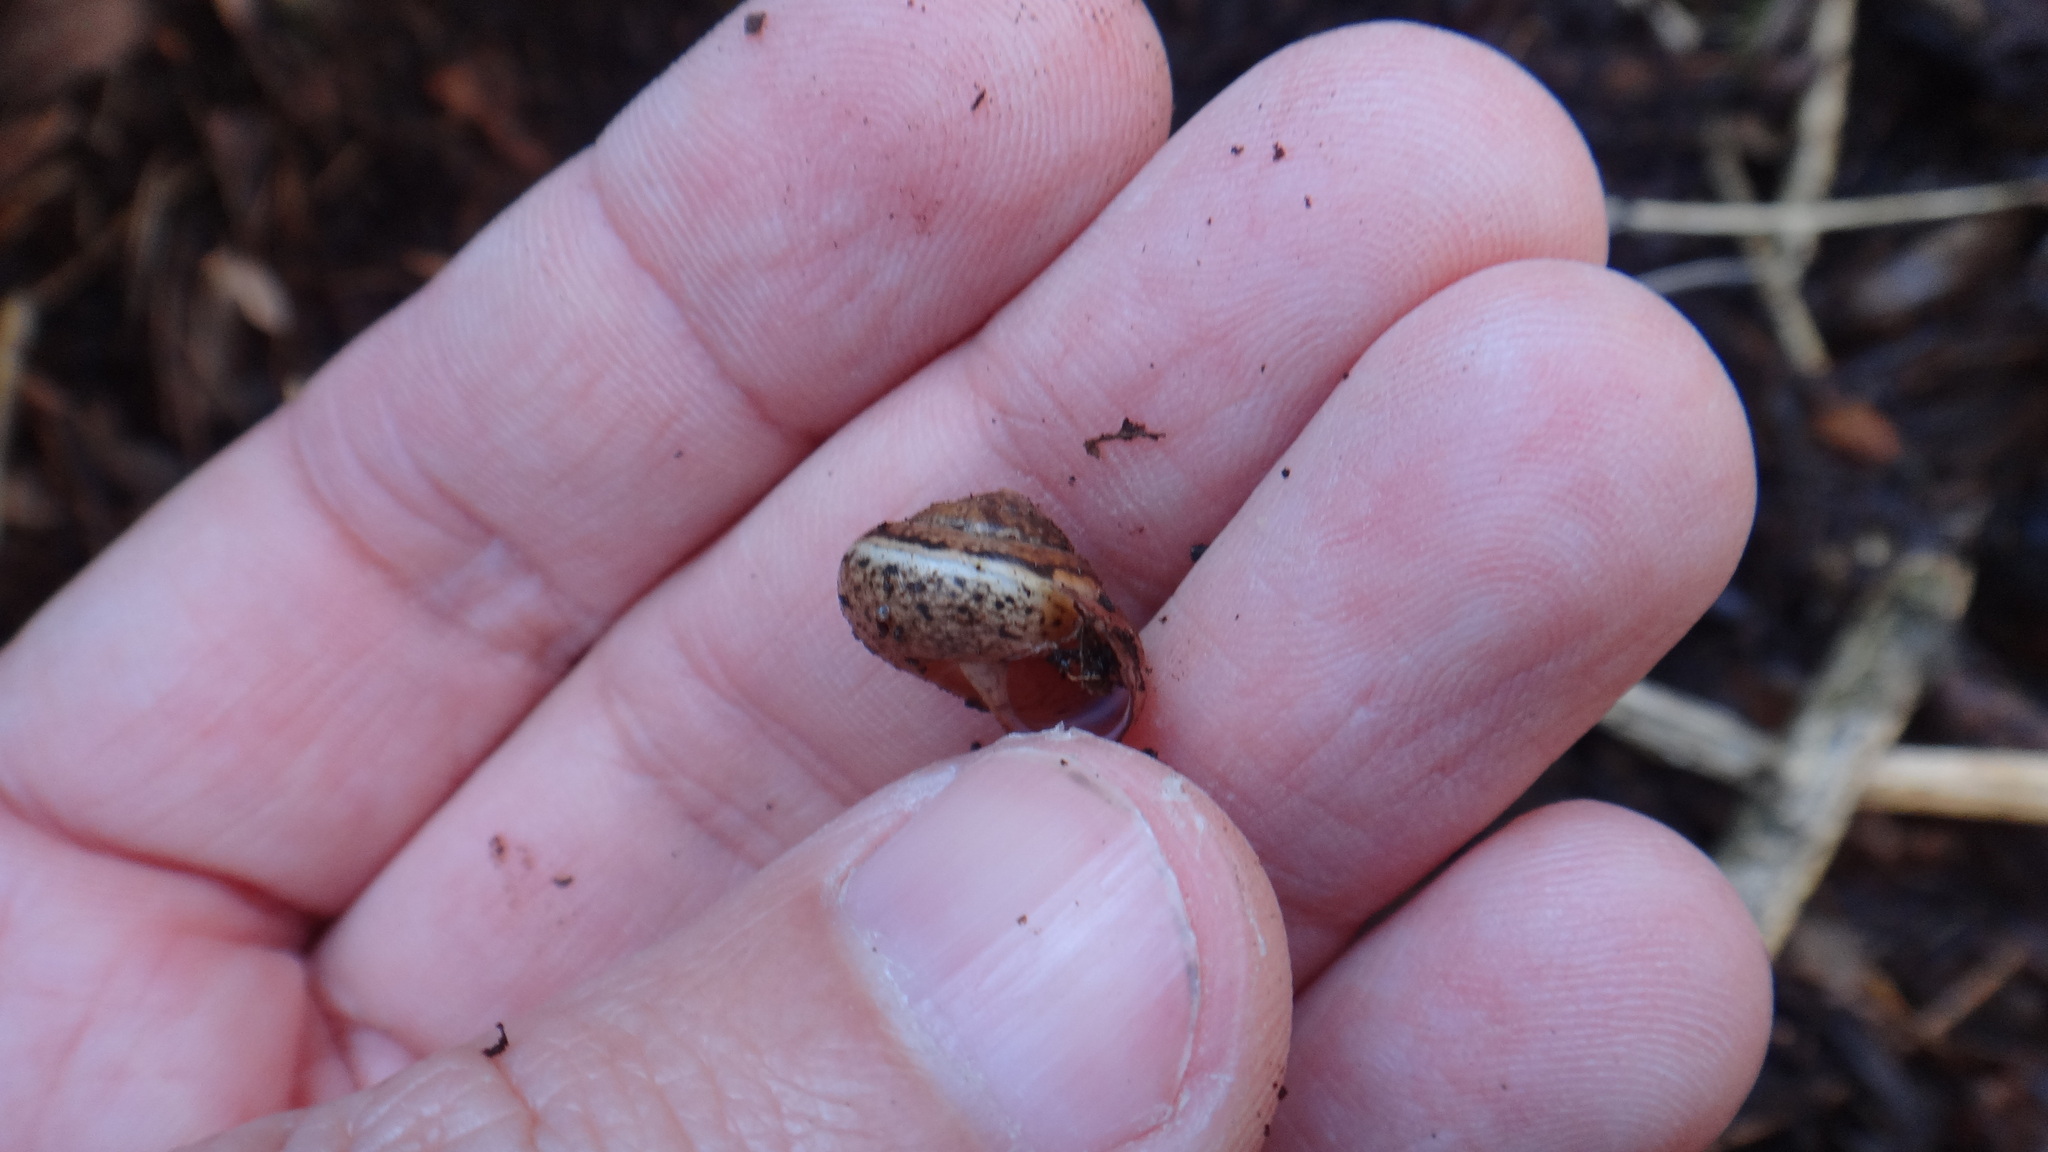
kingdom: Animalia
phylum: Mollusca
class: Gastropoda
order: Stylommatophora
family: Hygromiidae
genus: Euomphalia
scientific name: Euomphalia strigella
